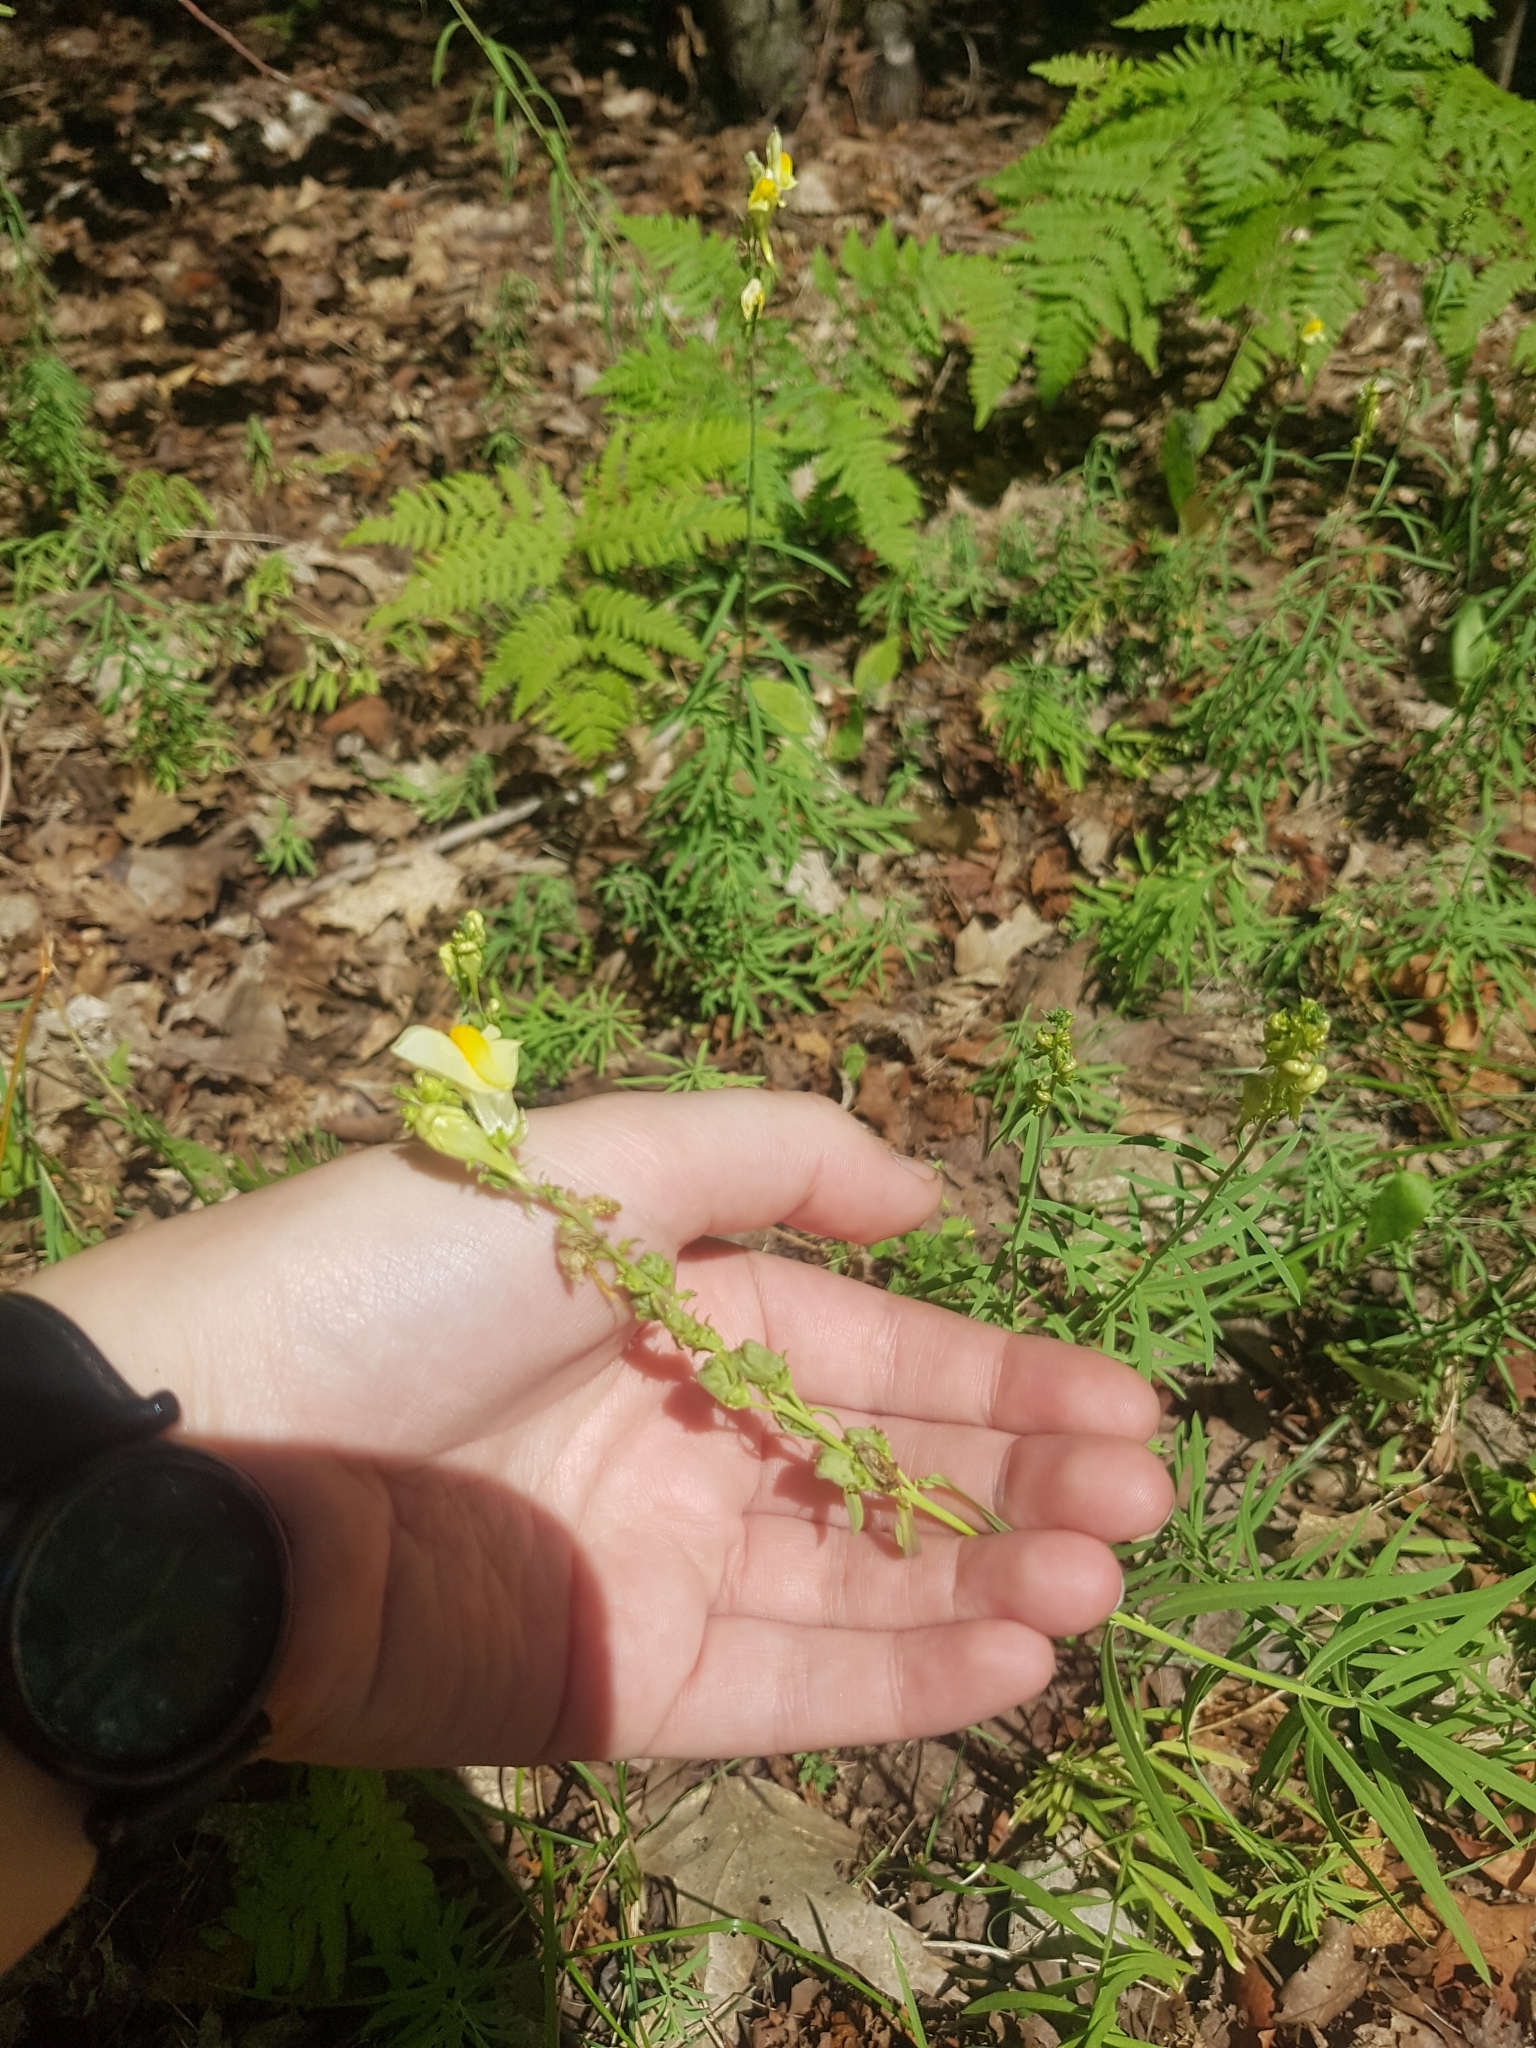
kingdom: Plantae
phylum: Tracheophyta
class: Magnoliopsida
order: Lamiales
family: Plantaginaceae
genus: Linaria
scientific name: Linaria vulgaris
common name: Butter and eggs
